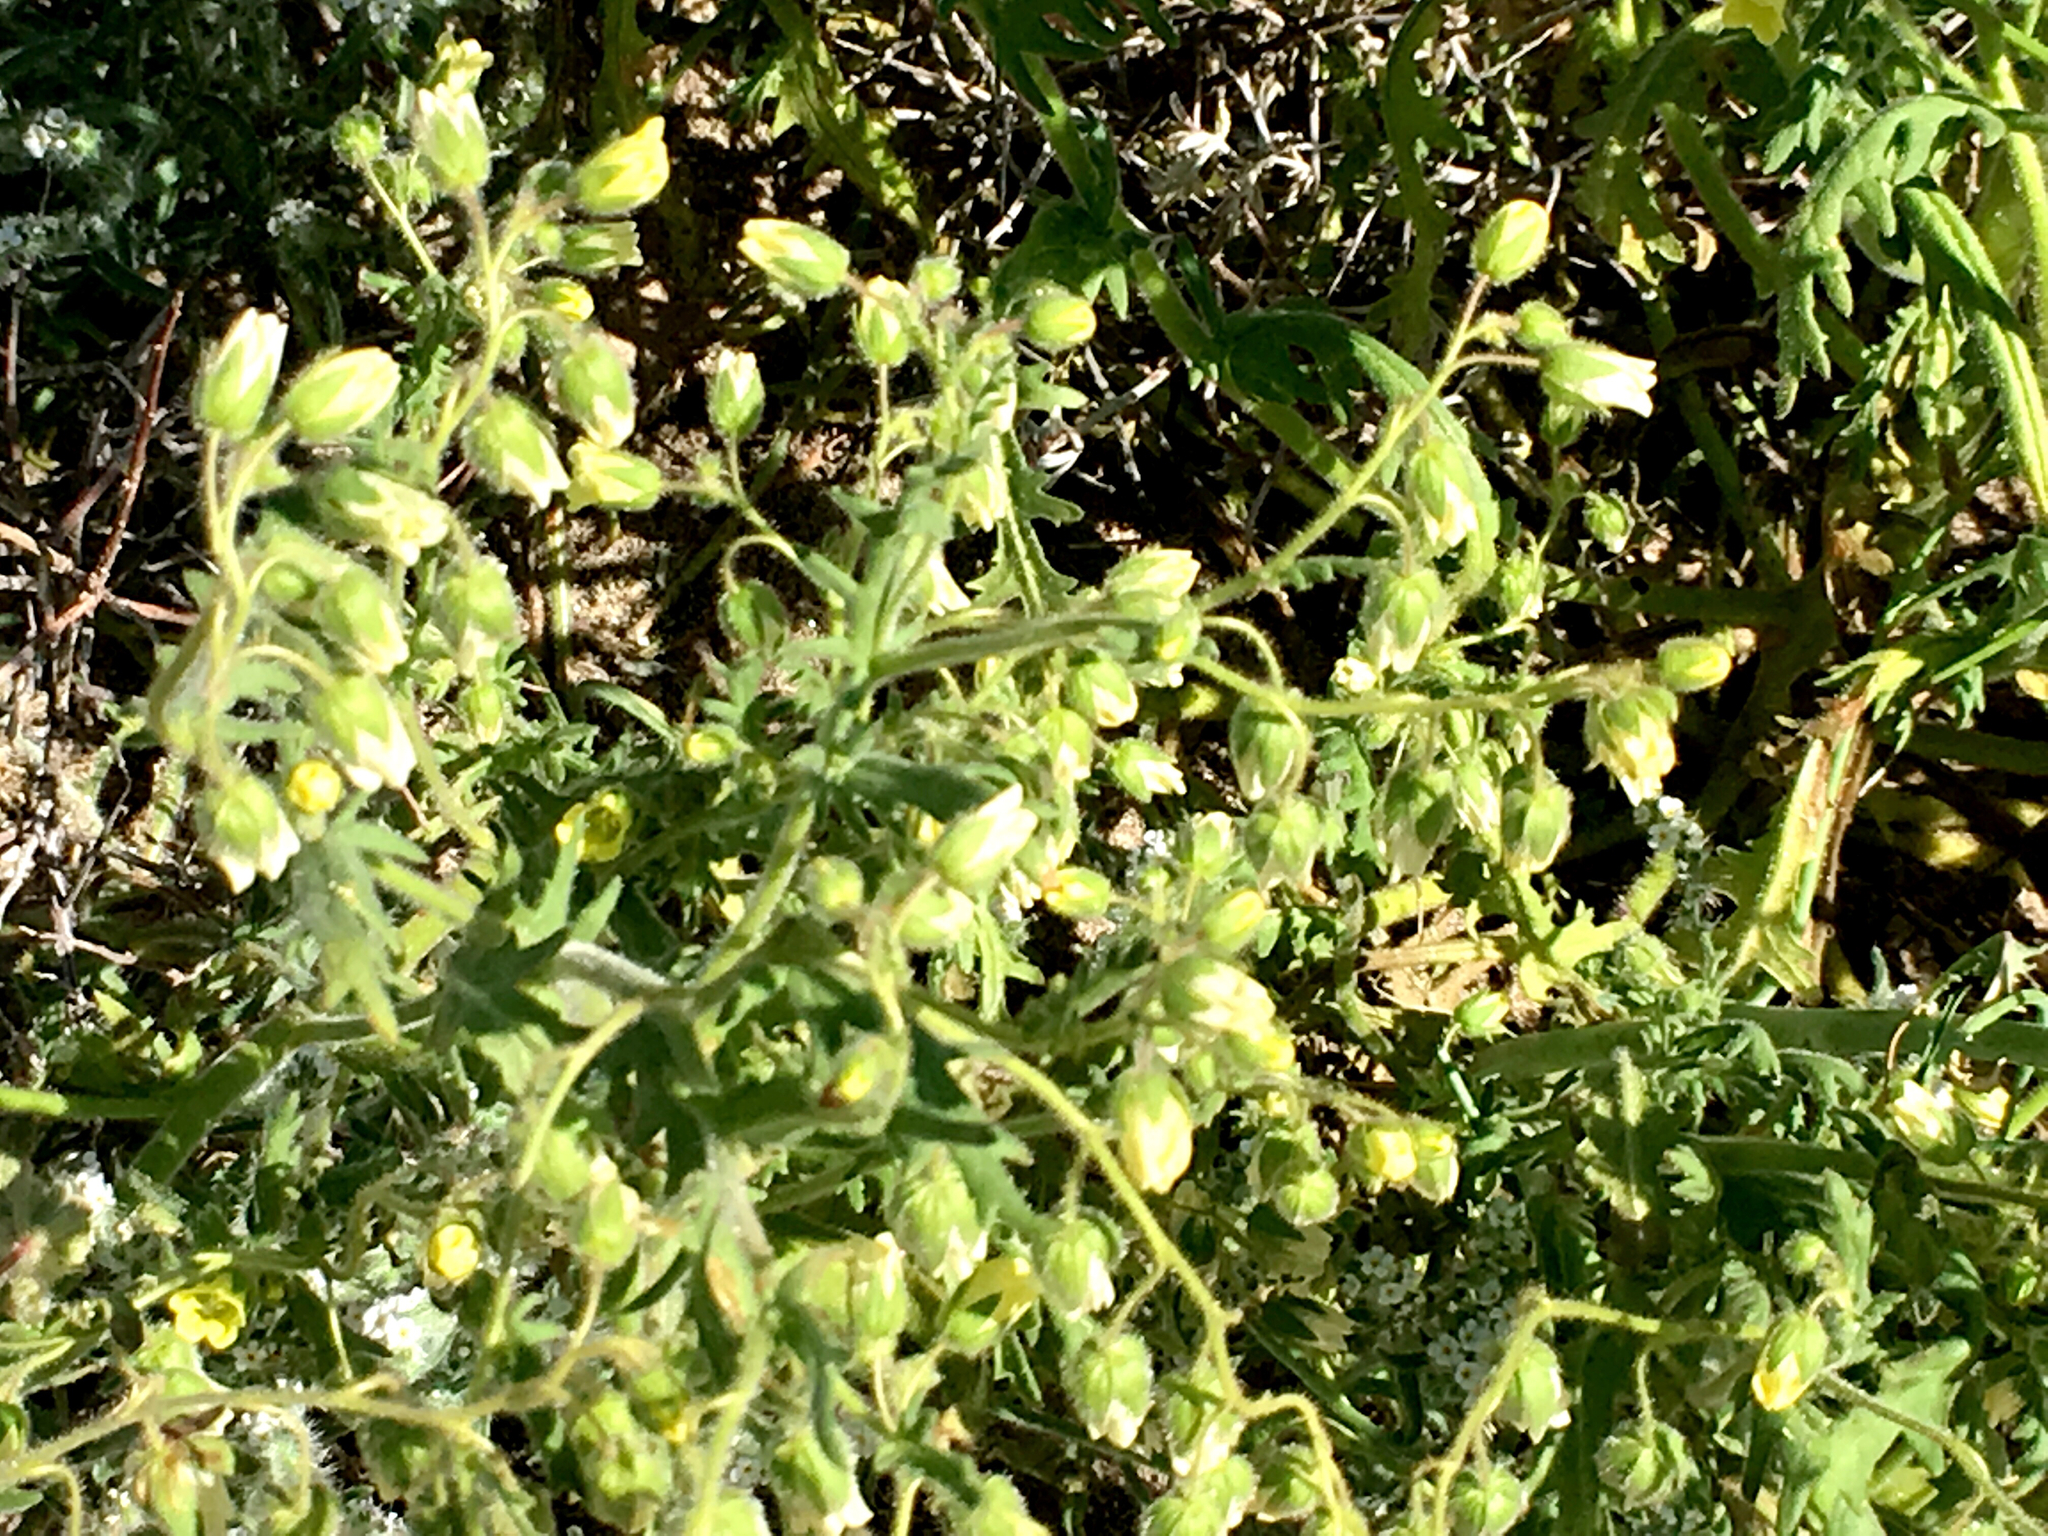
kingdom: Plantae
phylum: Tracheophyta
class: Magnoliopsida
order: Boraginales
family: Hydrophyllaceae
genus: Emmenanthe
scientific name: Emmenanthe penduliflora
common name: Whispering-bells
